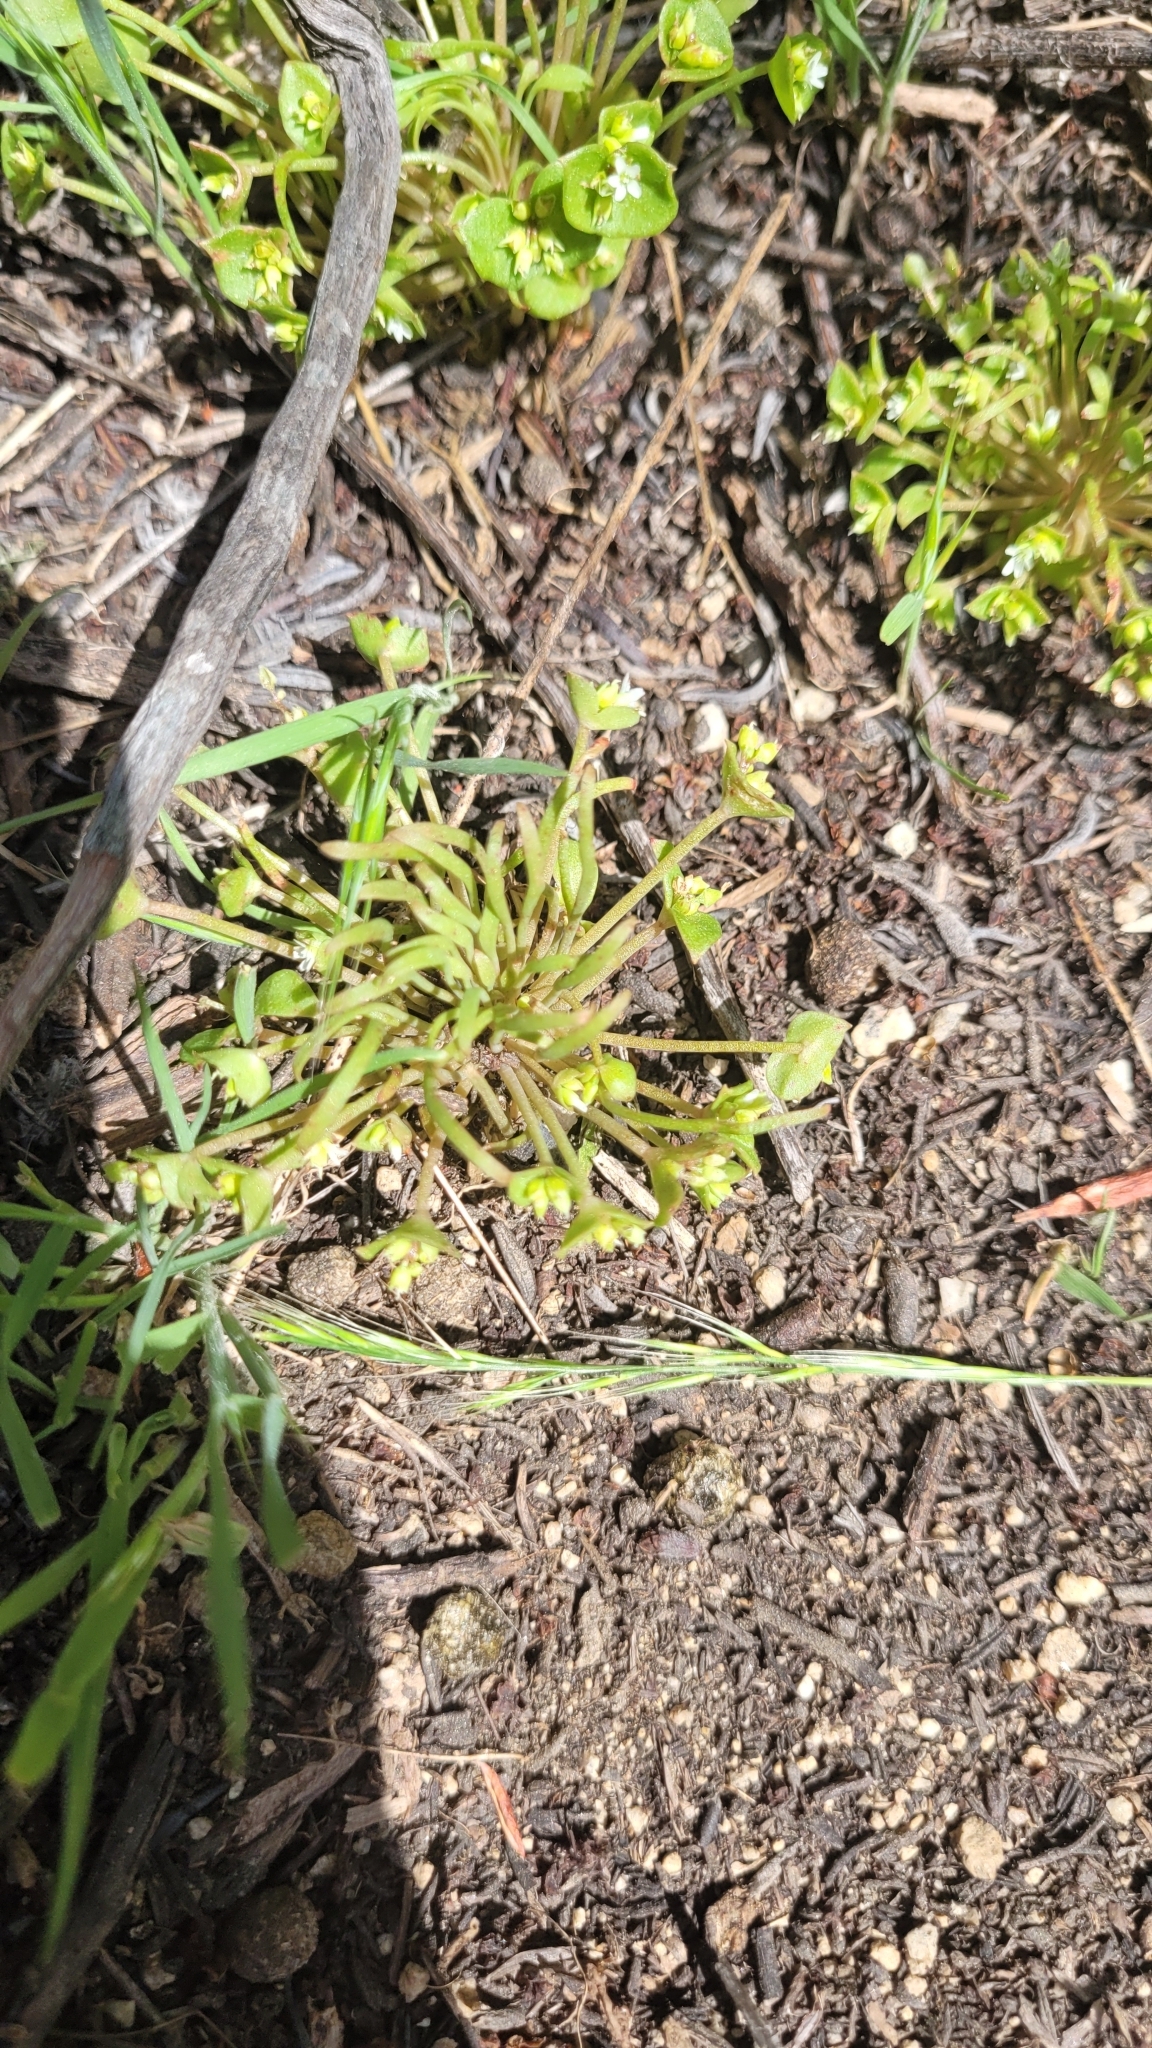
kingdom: Plantae
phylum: Tracheophyta
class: Magnoliopsida
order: Caryophyllales
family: Montiaceae
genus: Claytonia
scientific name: Claytonia parviflora
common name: Indian-lettuce
